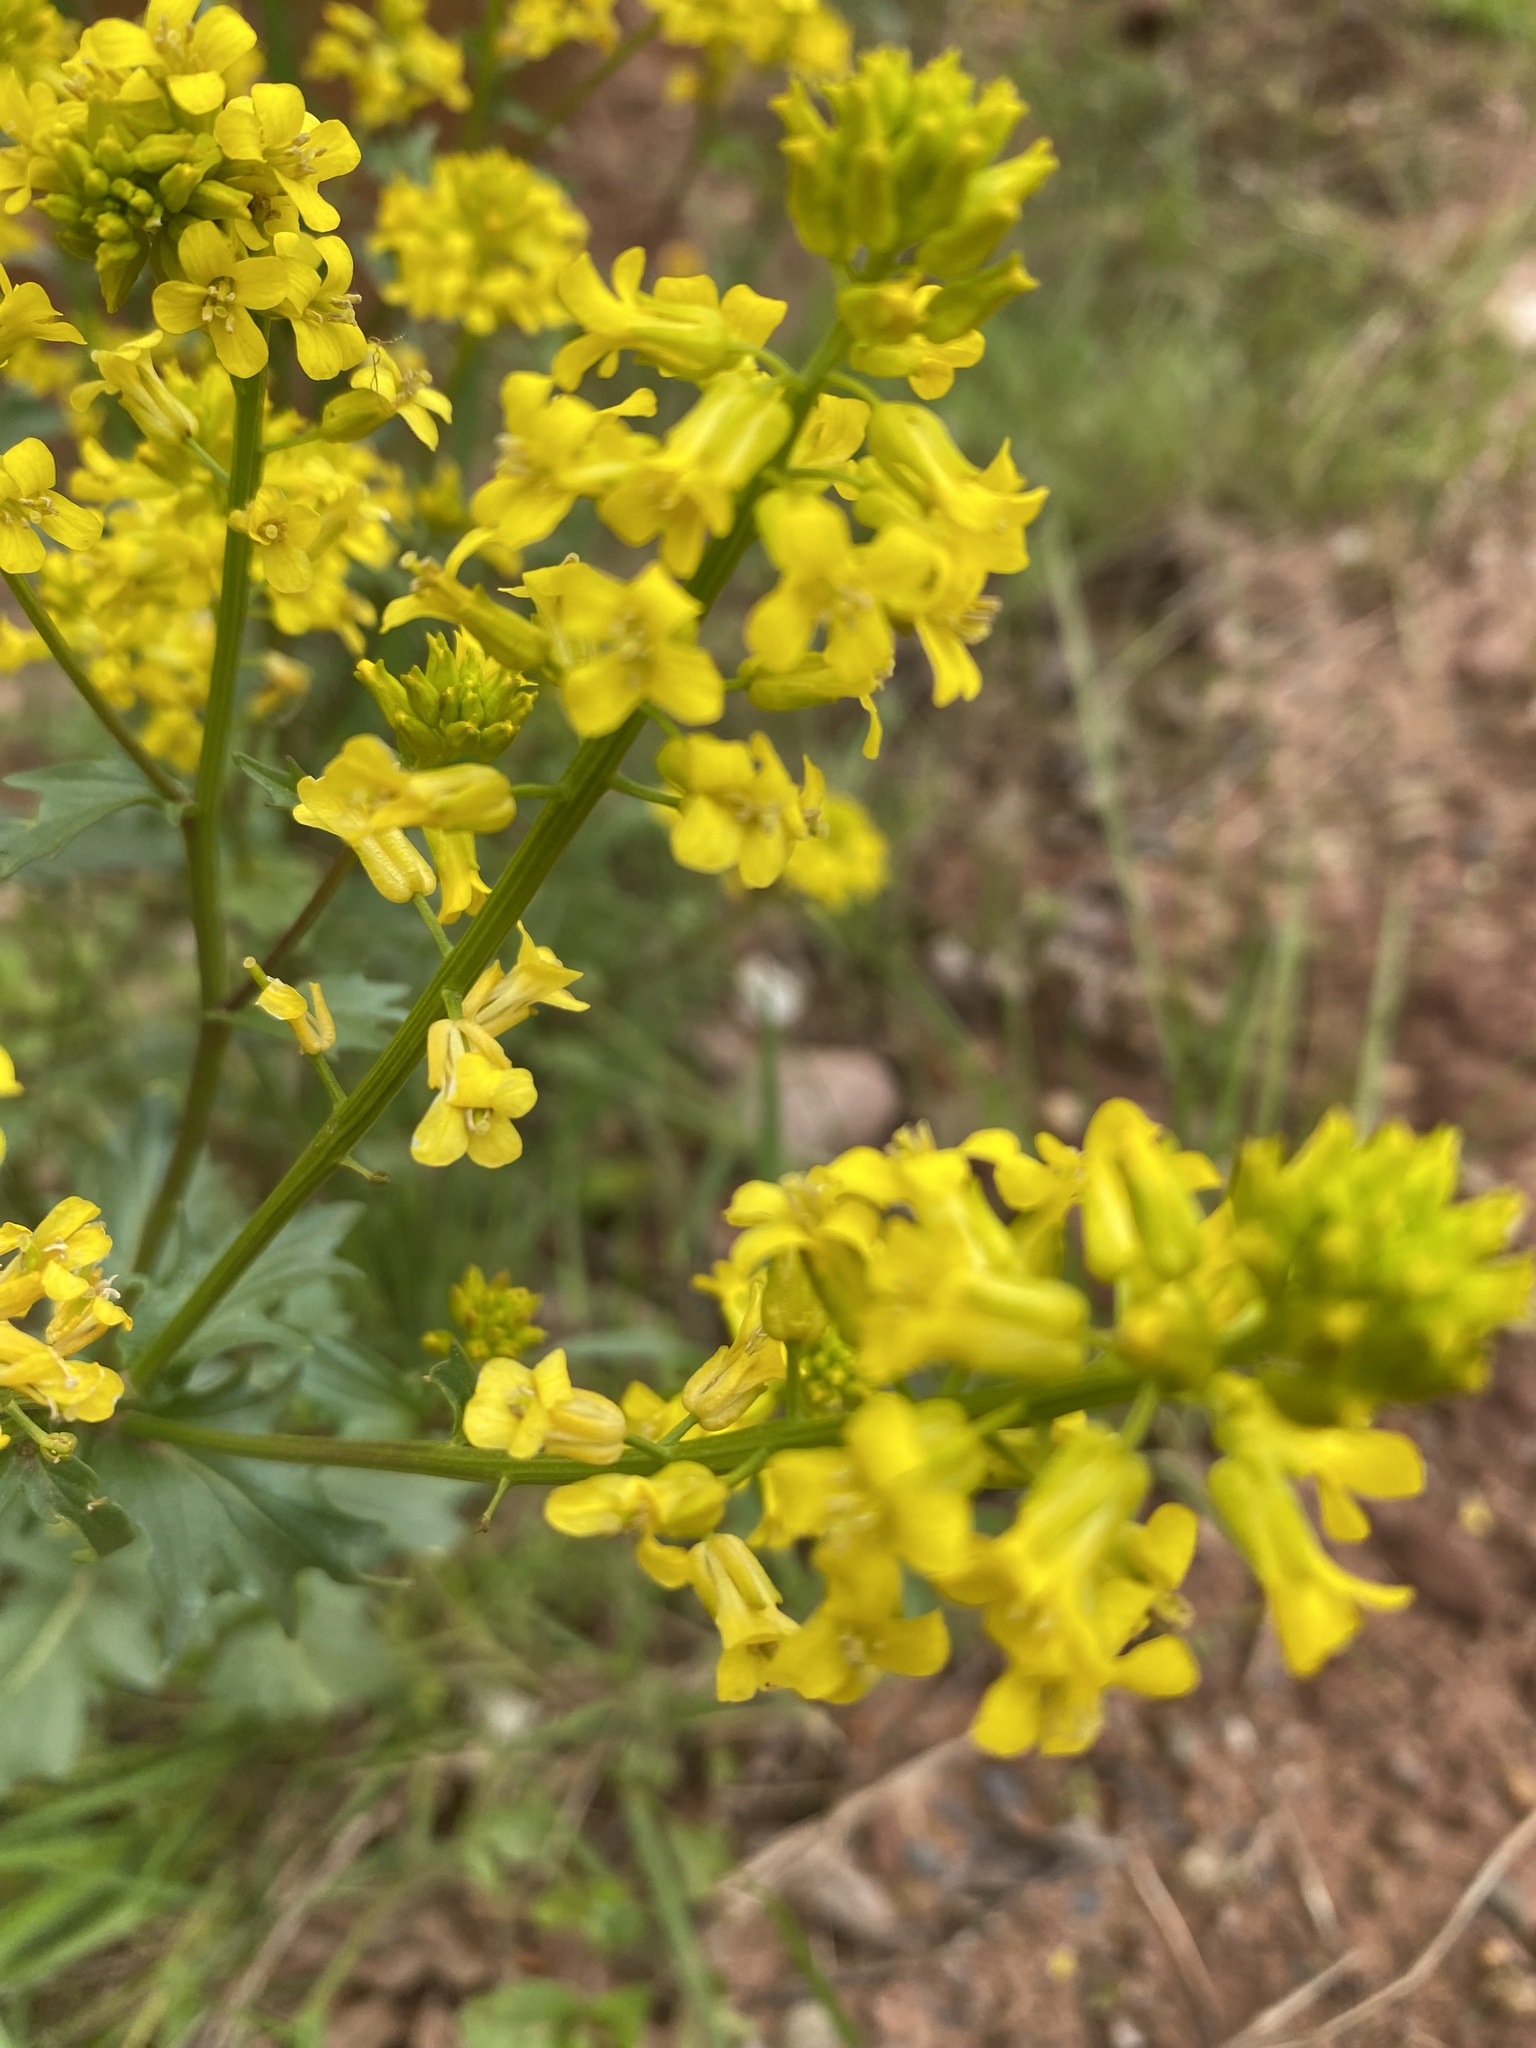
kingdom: Plantae
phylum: Tracheophyta
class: Magnoliopsida
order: Brassicales
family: Brassicaceae
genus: Barbarea
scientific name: Barbarea vulgaris
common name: Cressy-greens
